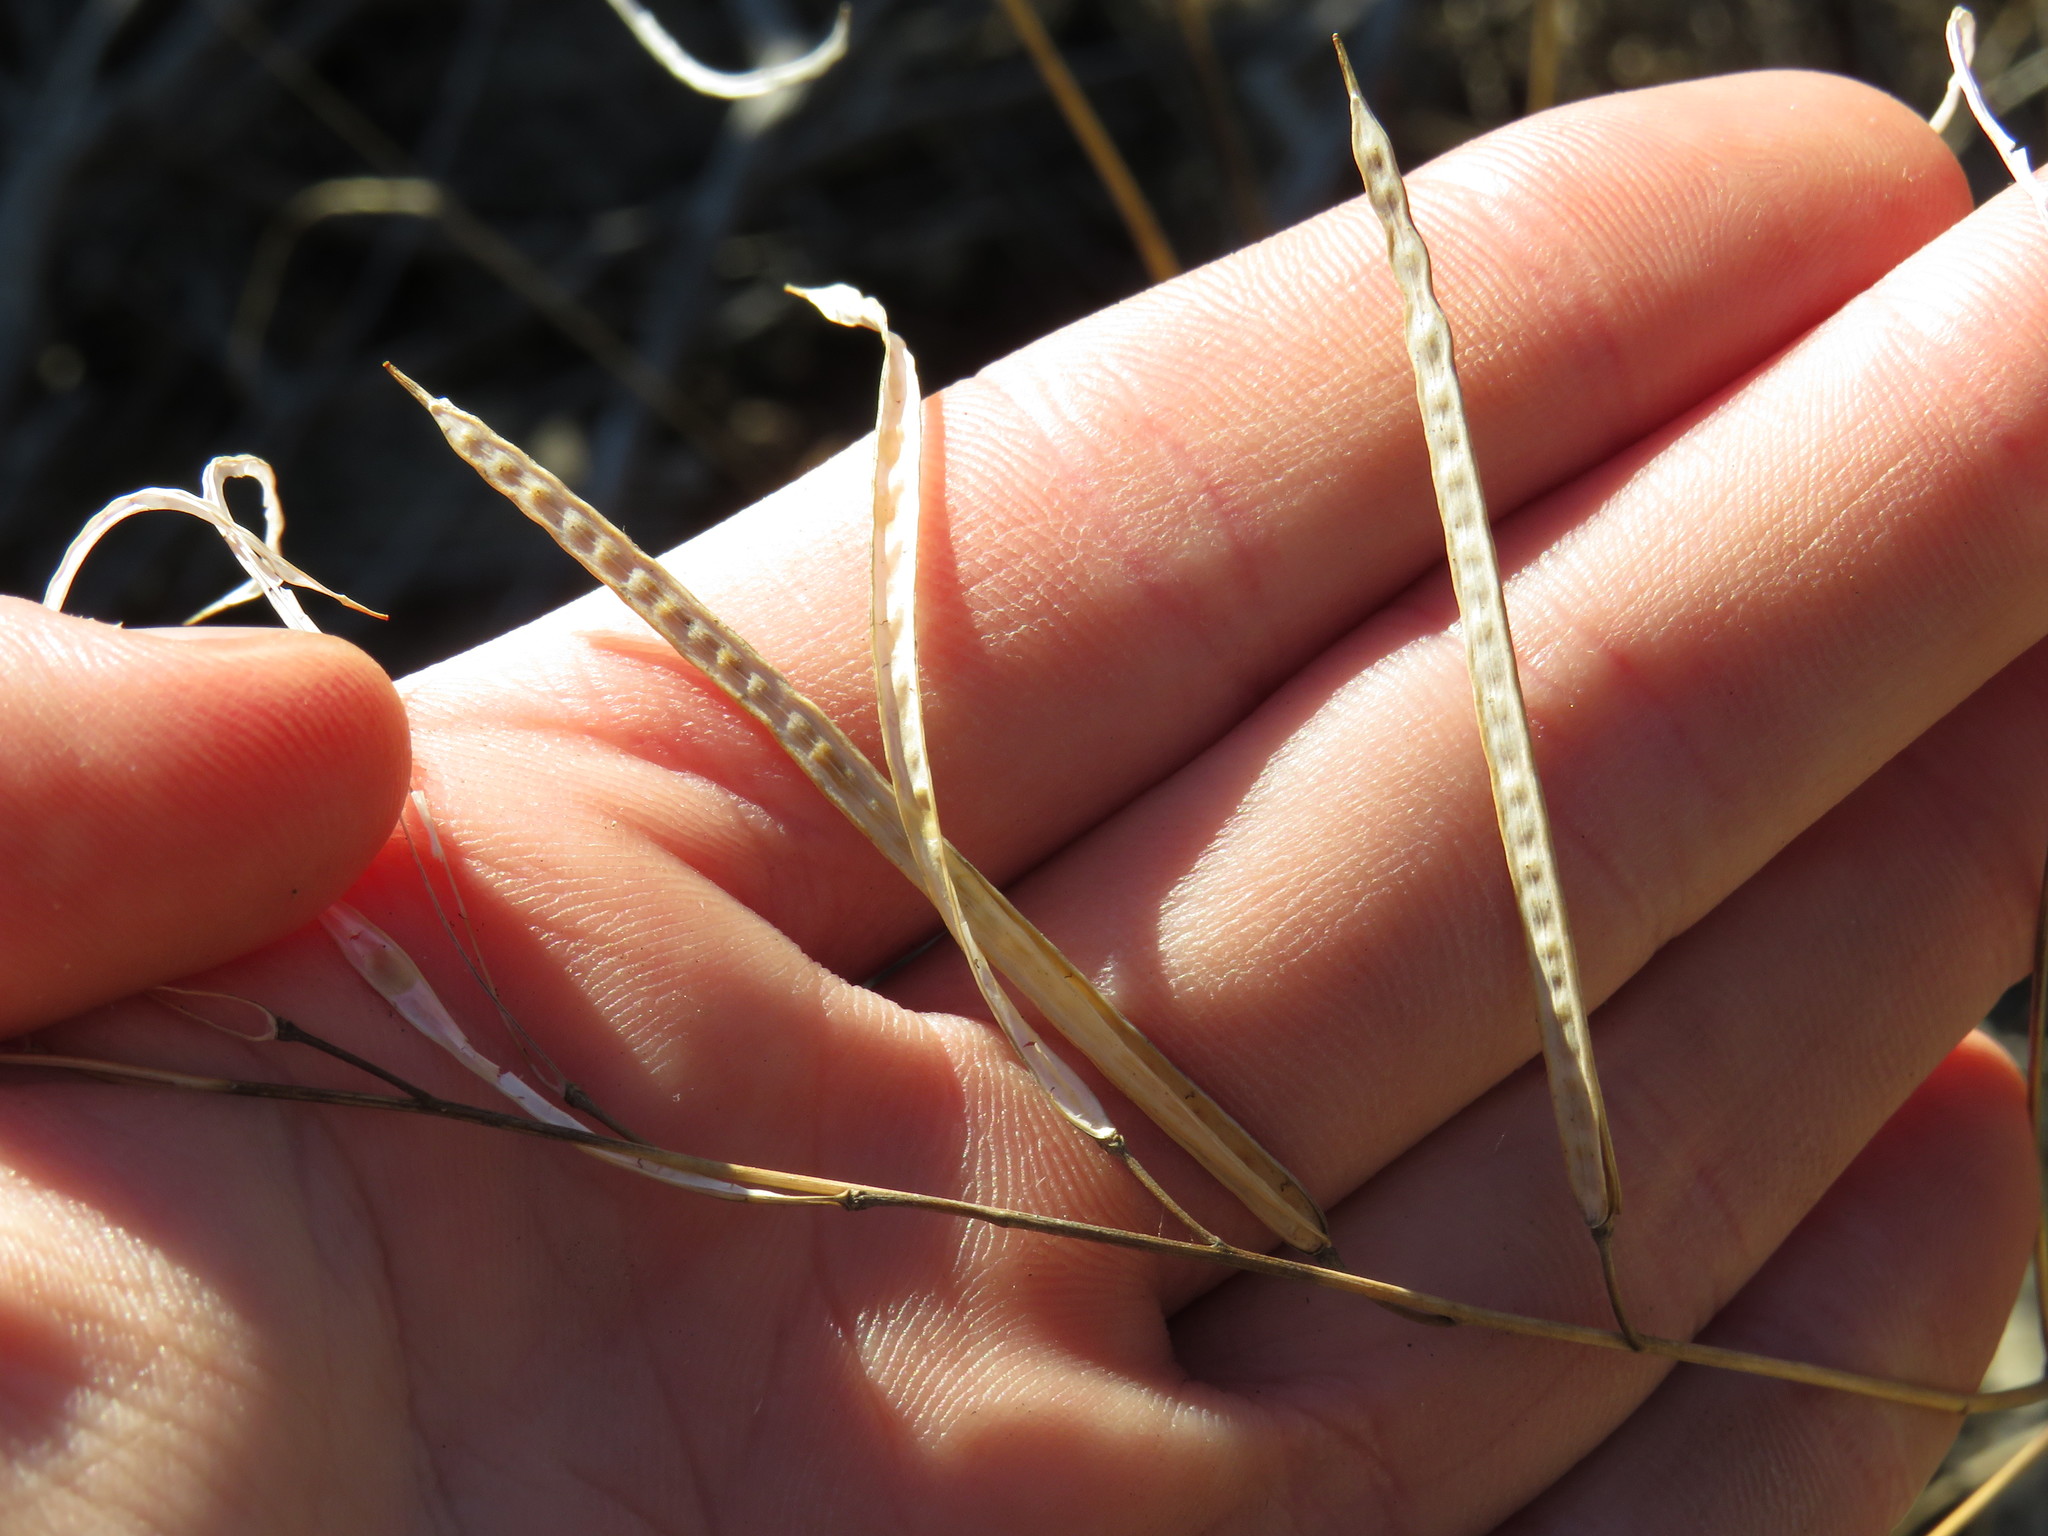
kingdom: Plantae
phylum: Tracheophyta
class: Magnoliopsida
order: Brassicales
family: Brassicaceae
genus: Heliophila
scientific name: Heliophila linearis
